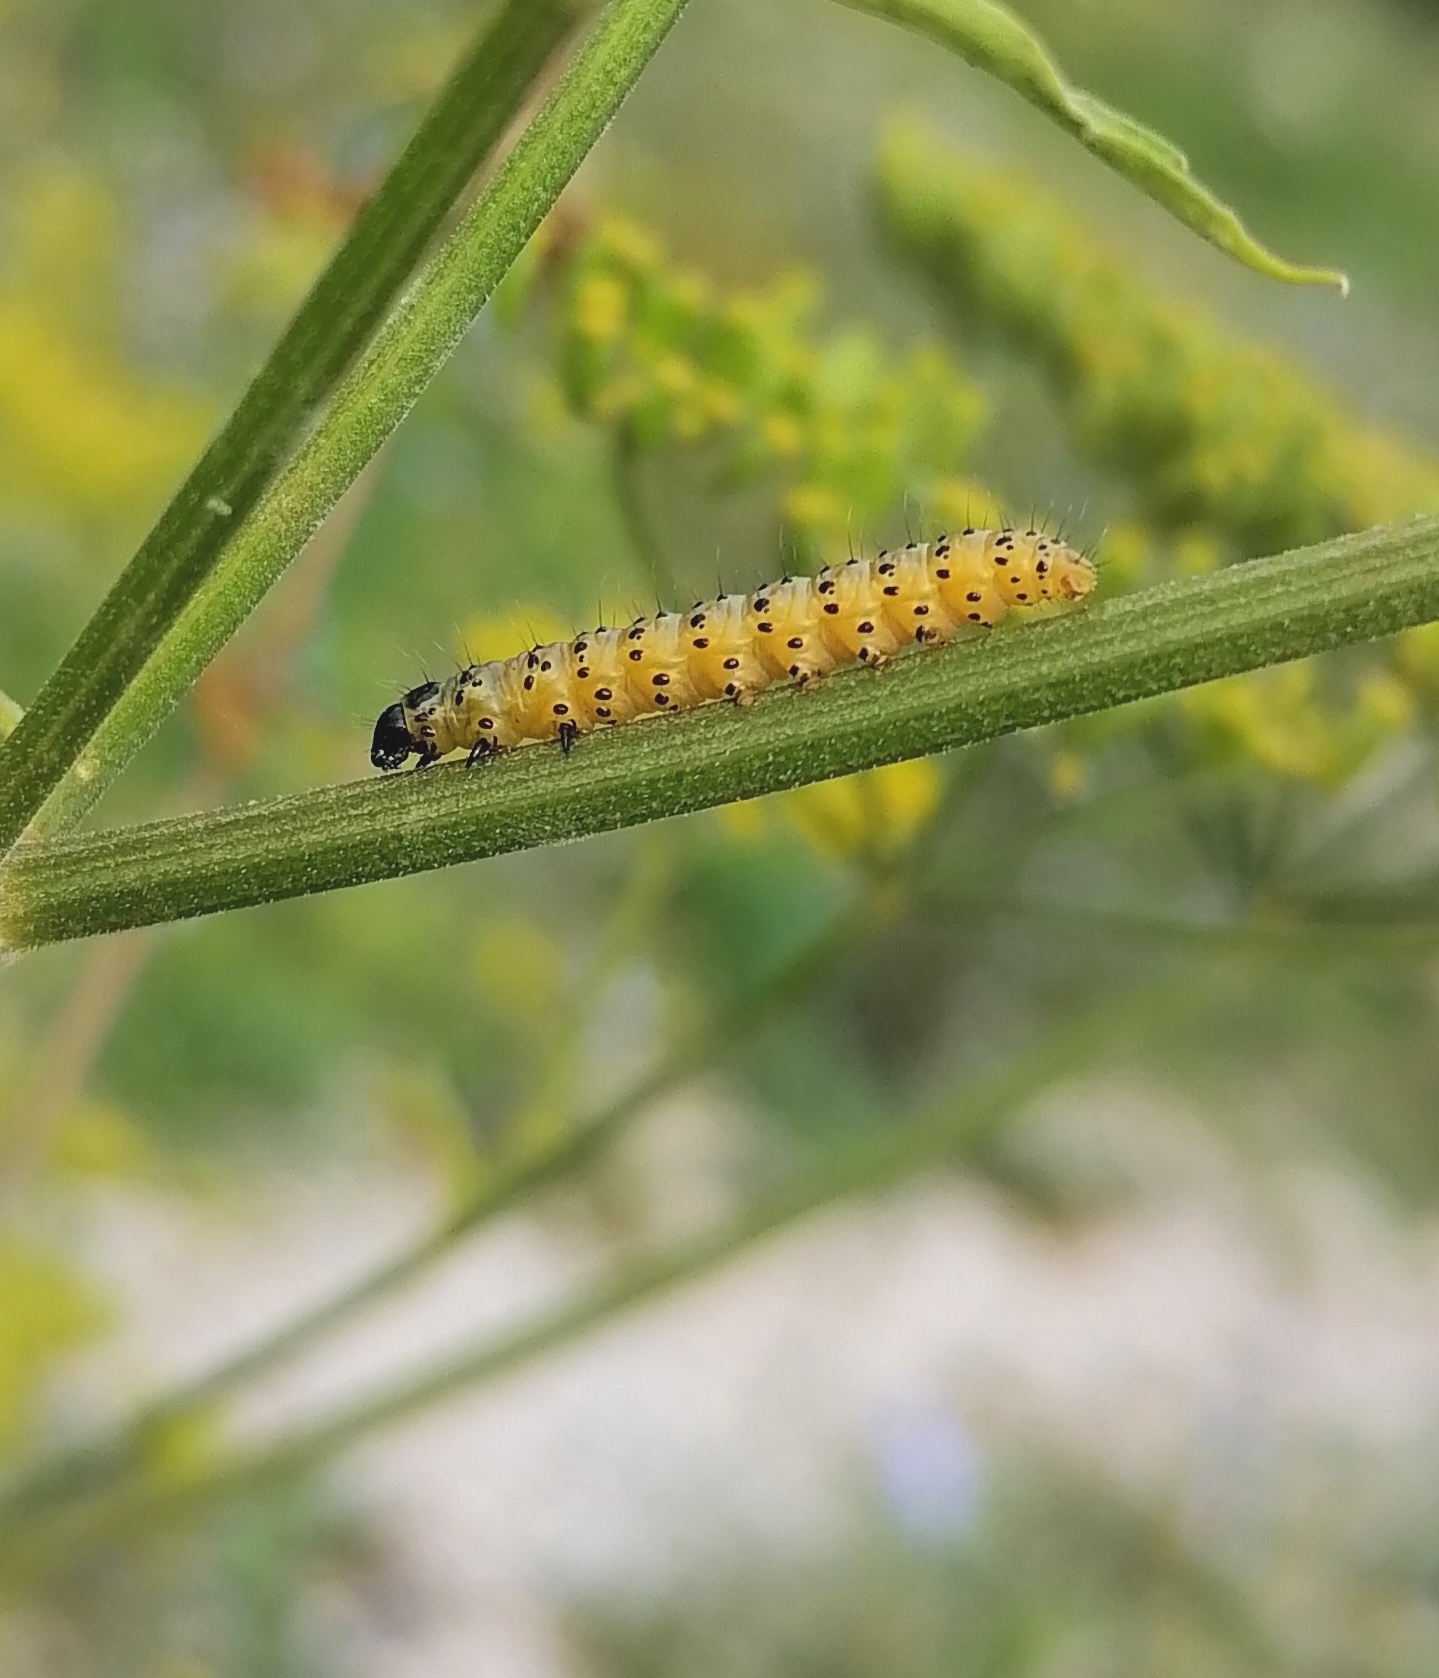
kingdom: Animalia
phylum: Arthropoda
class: Insecta
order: Lepidoptera
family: Depressariidae
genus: Depressaria
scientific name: Depressaria radiella
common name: Parsnip moth
